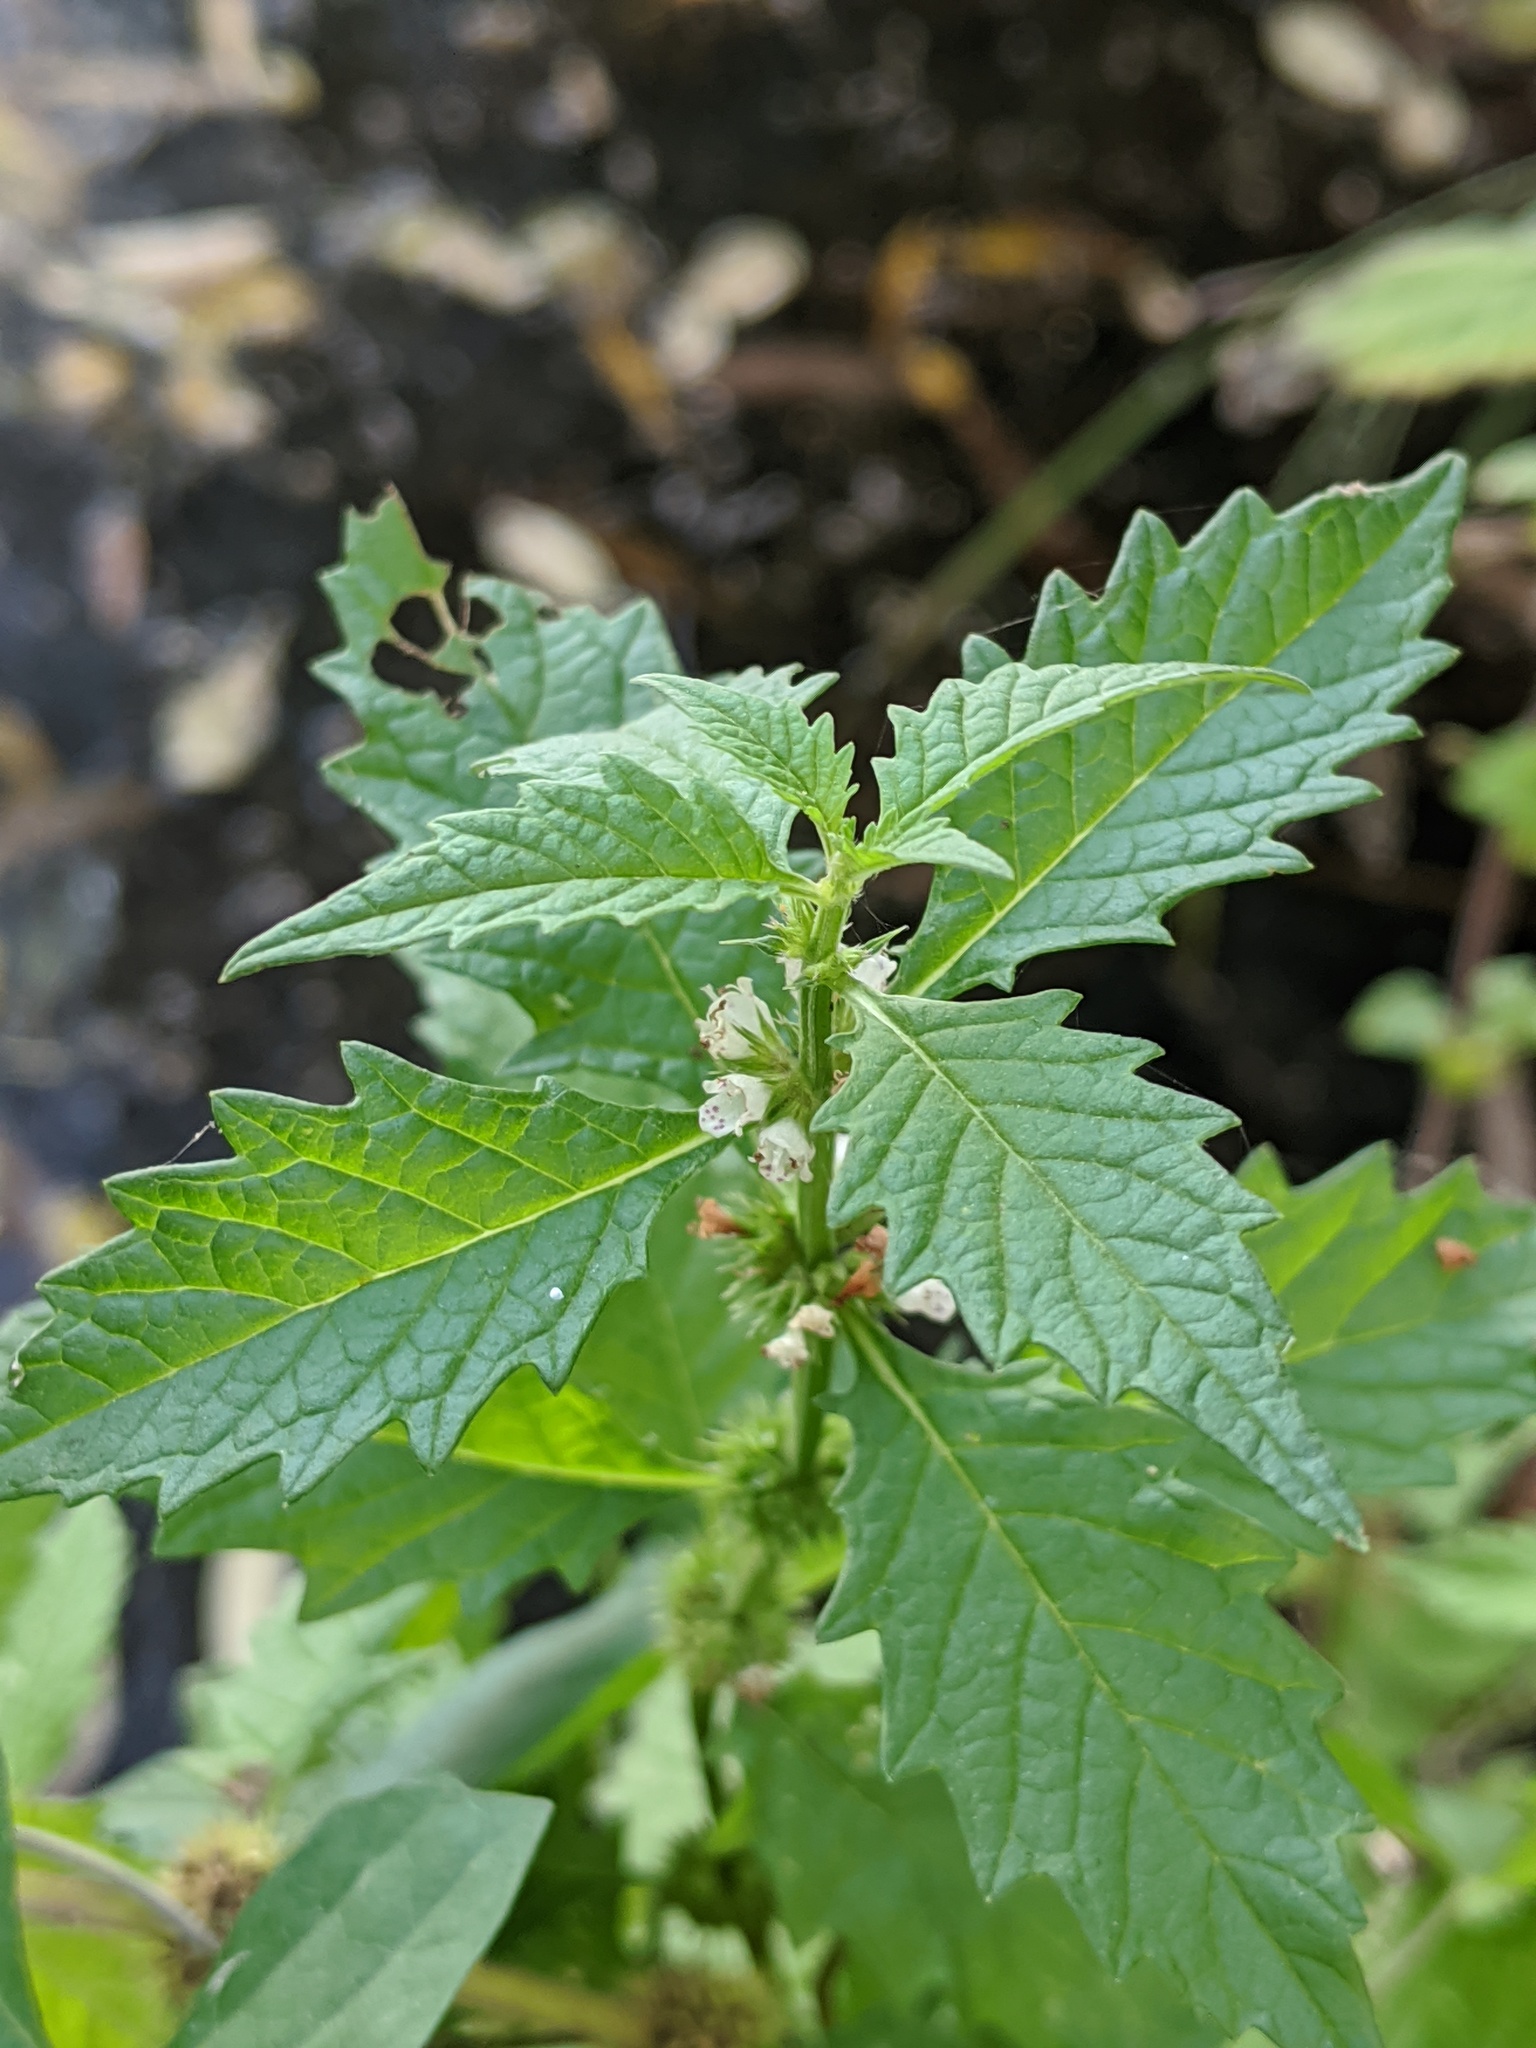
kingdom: Plantae
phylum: Tracheophyta
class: Magnoliopsida
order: Lamiales
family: Lamiaceae
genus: Lycopus
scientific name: Lycopus europaeus
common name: European bugleweed
